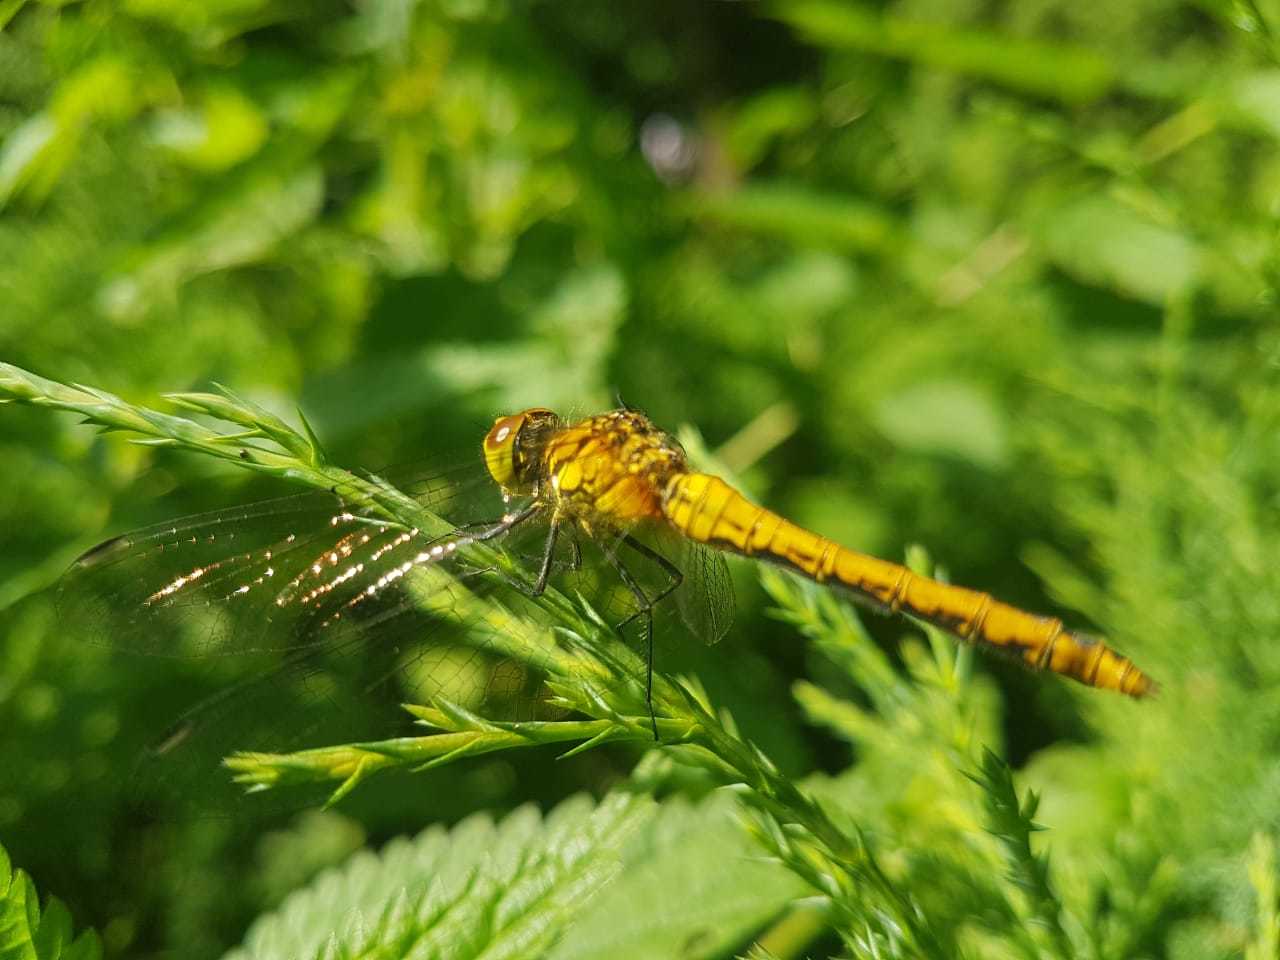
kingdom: Animalia
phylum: Arthropoda
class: Insecta
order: Odonata
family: Libellulidae
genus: Sympetrum
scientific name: Sympetrum sanguineum
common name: Ruddy darter
